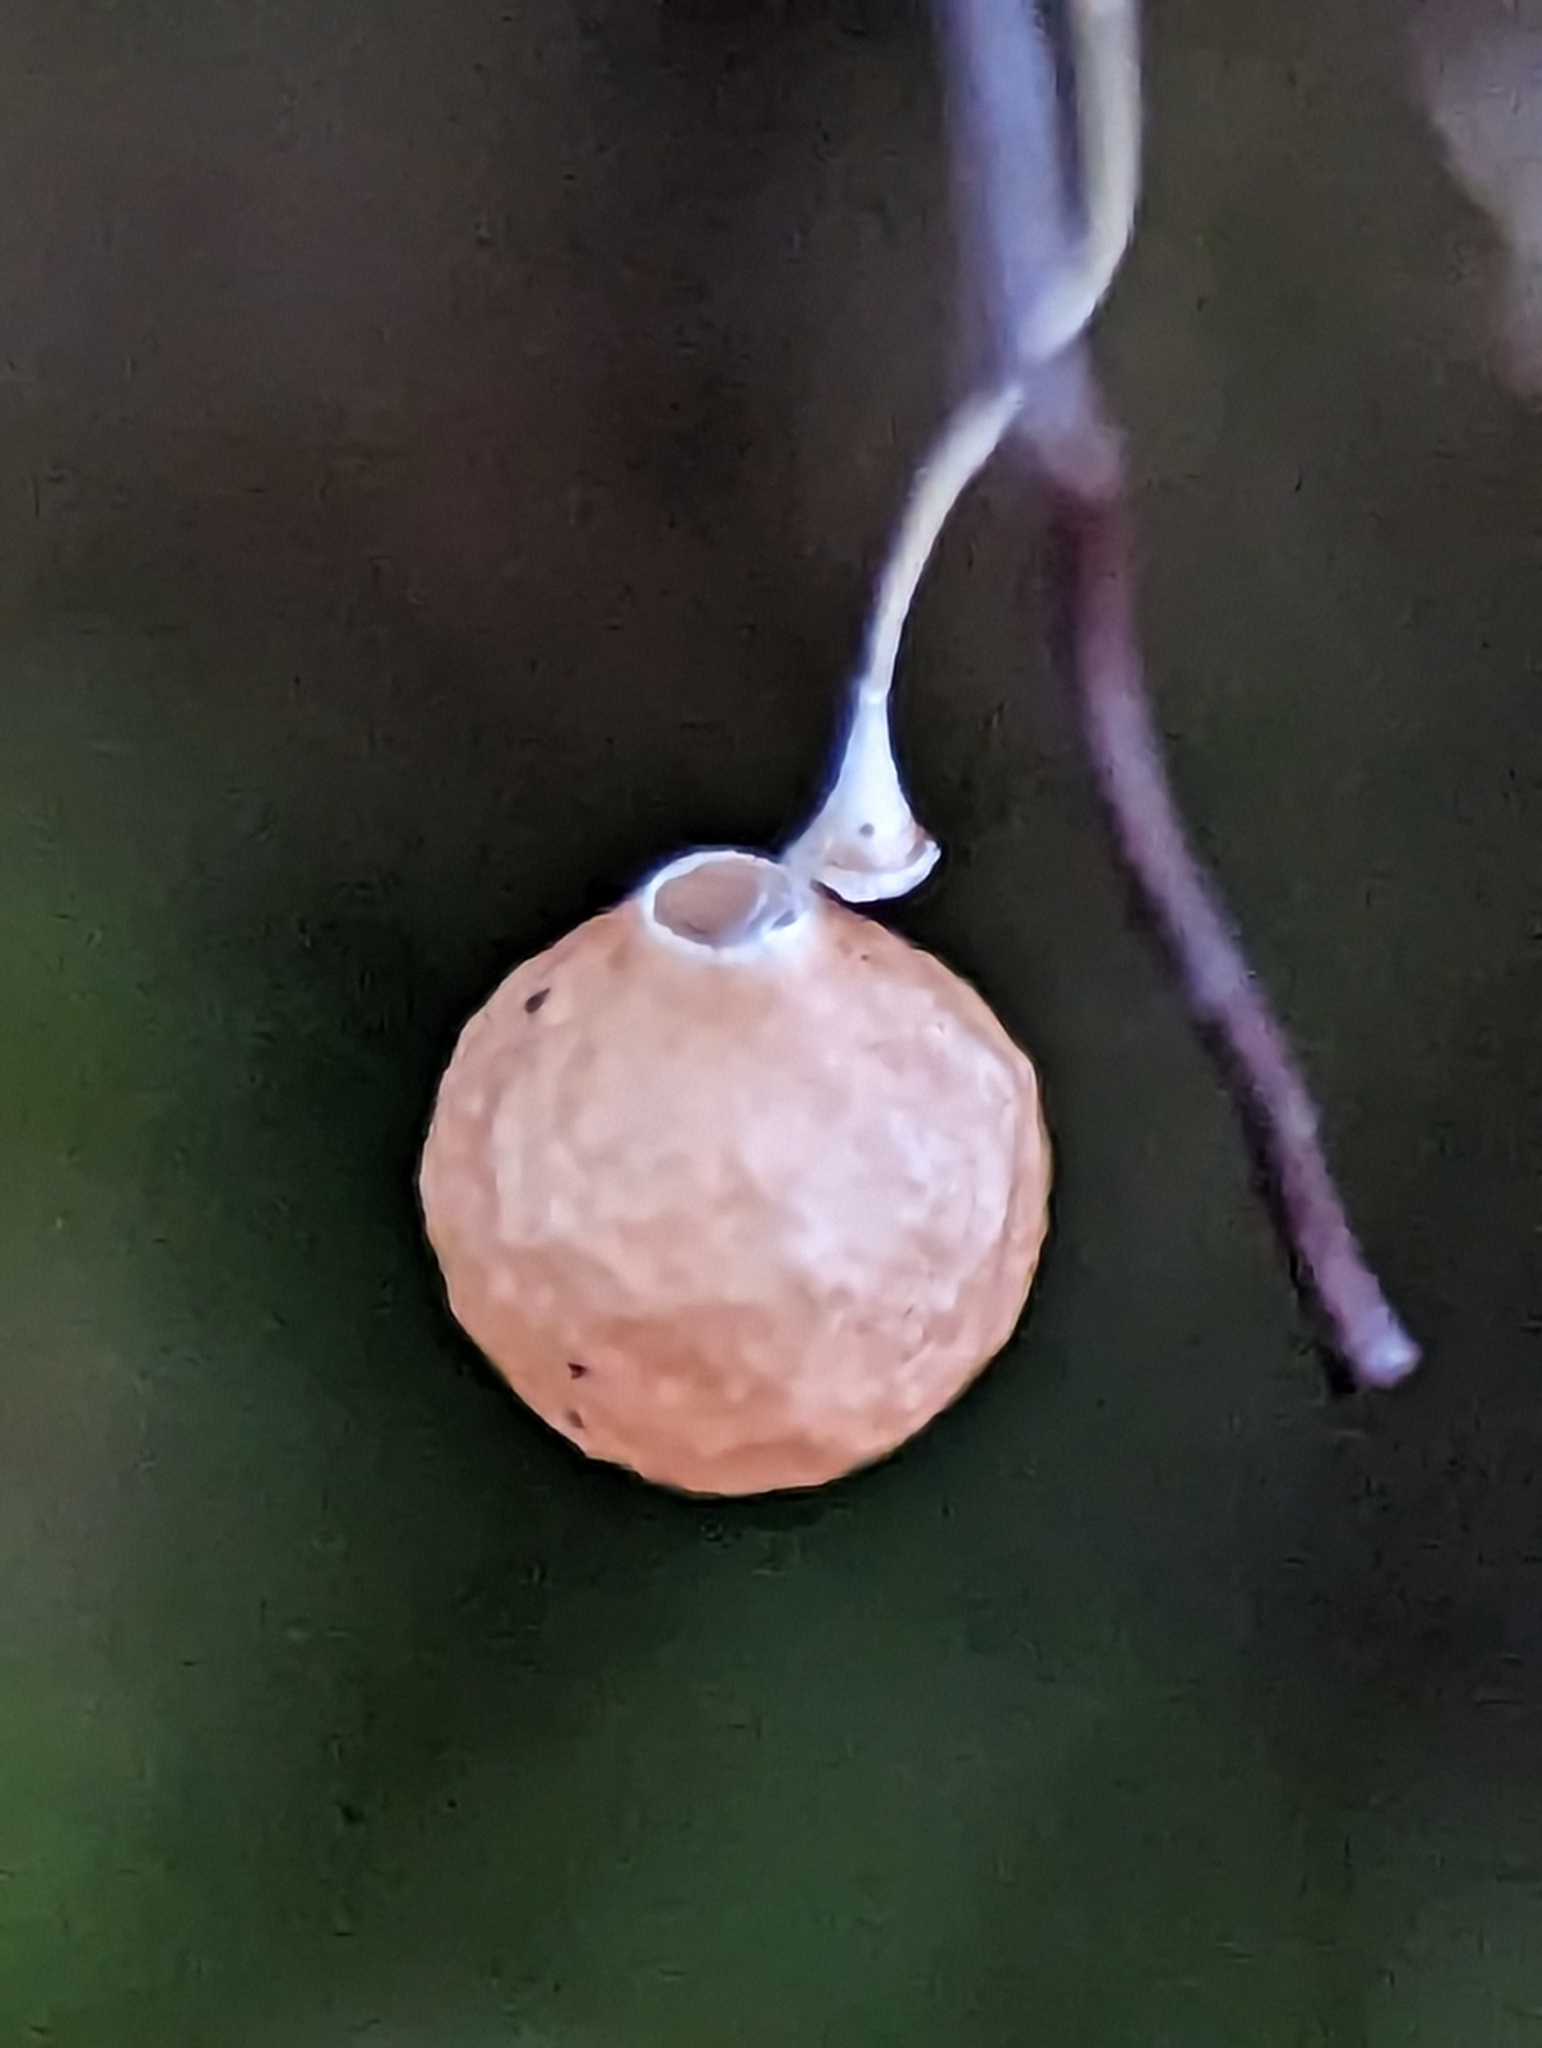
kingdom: Animalia
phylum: Arthropoda
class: Arachnida
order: Araneae
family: Theridiosomatidae
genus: Theridiosoma
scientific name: Theridiosoma gemmosum
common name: Ray spider
